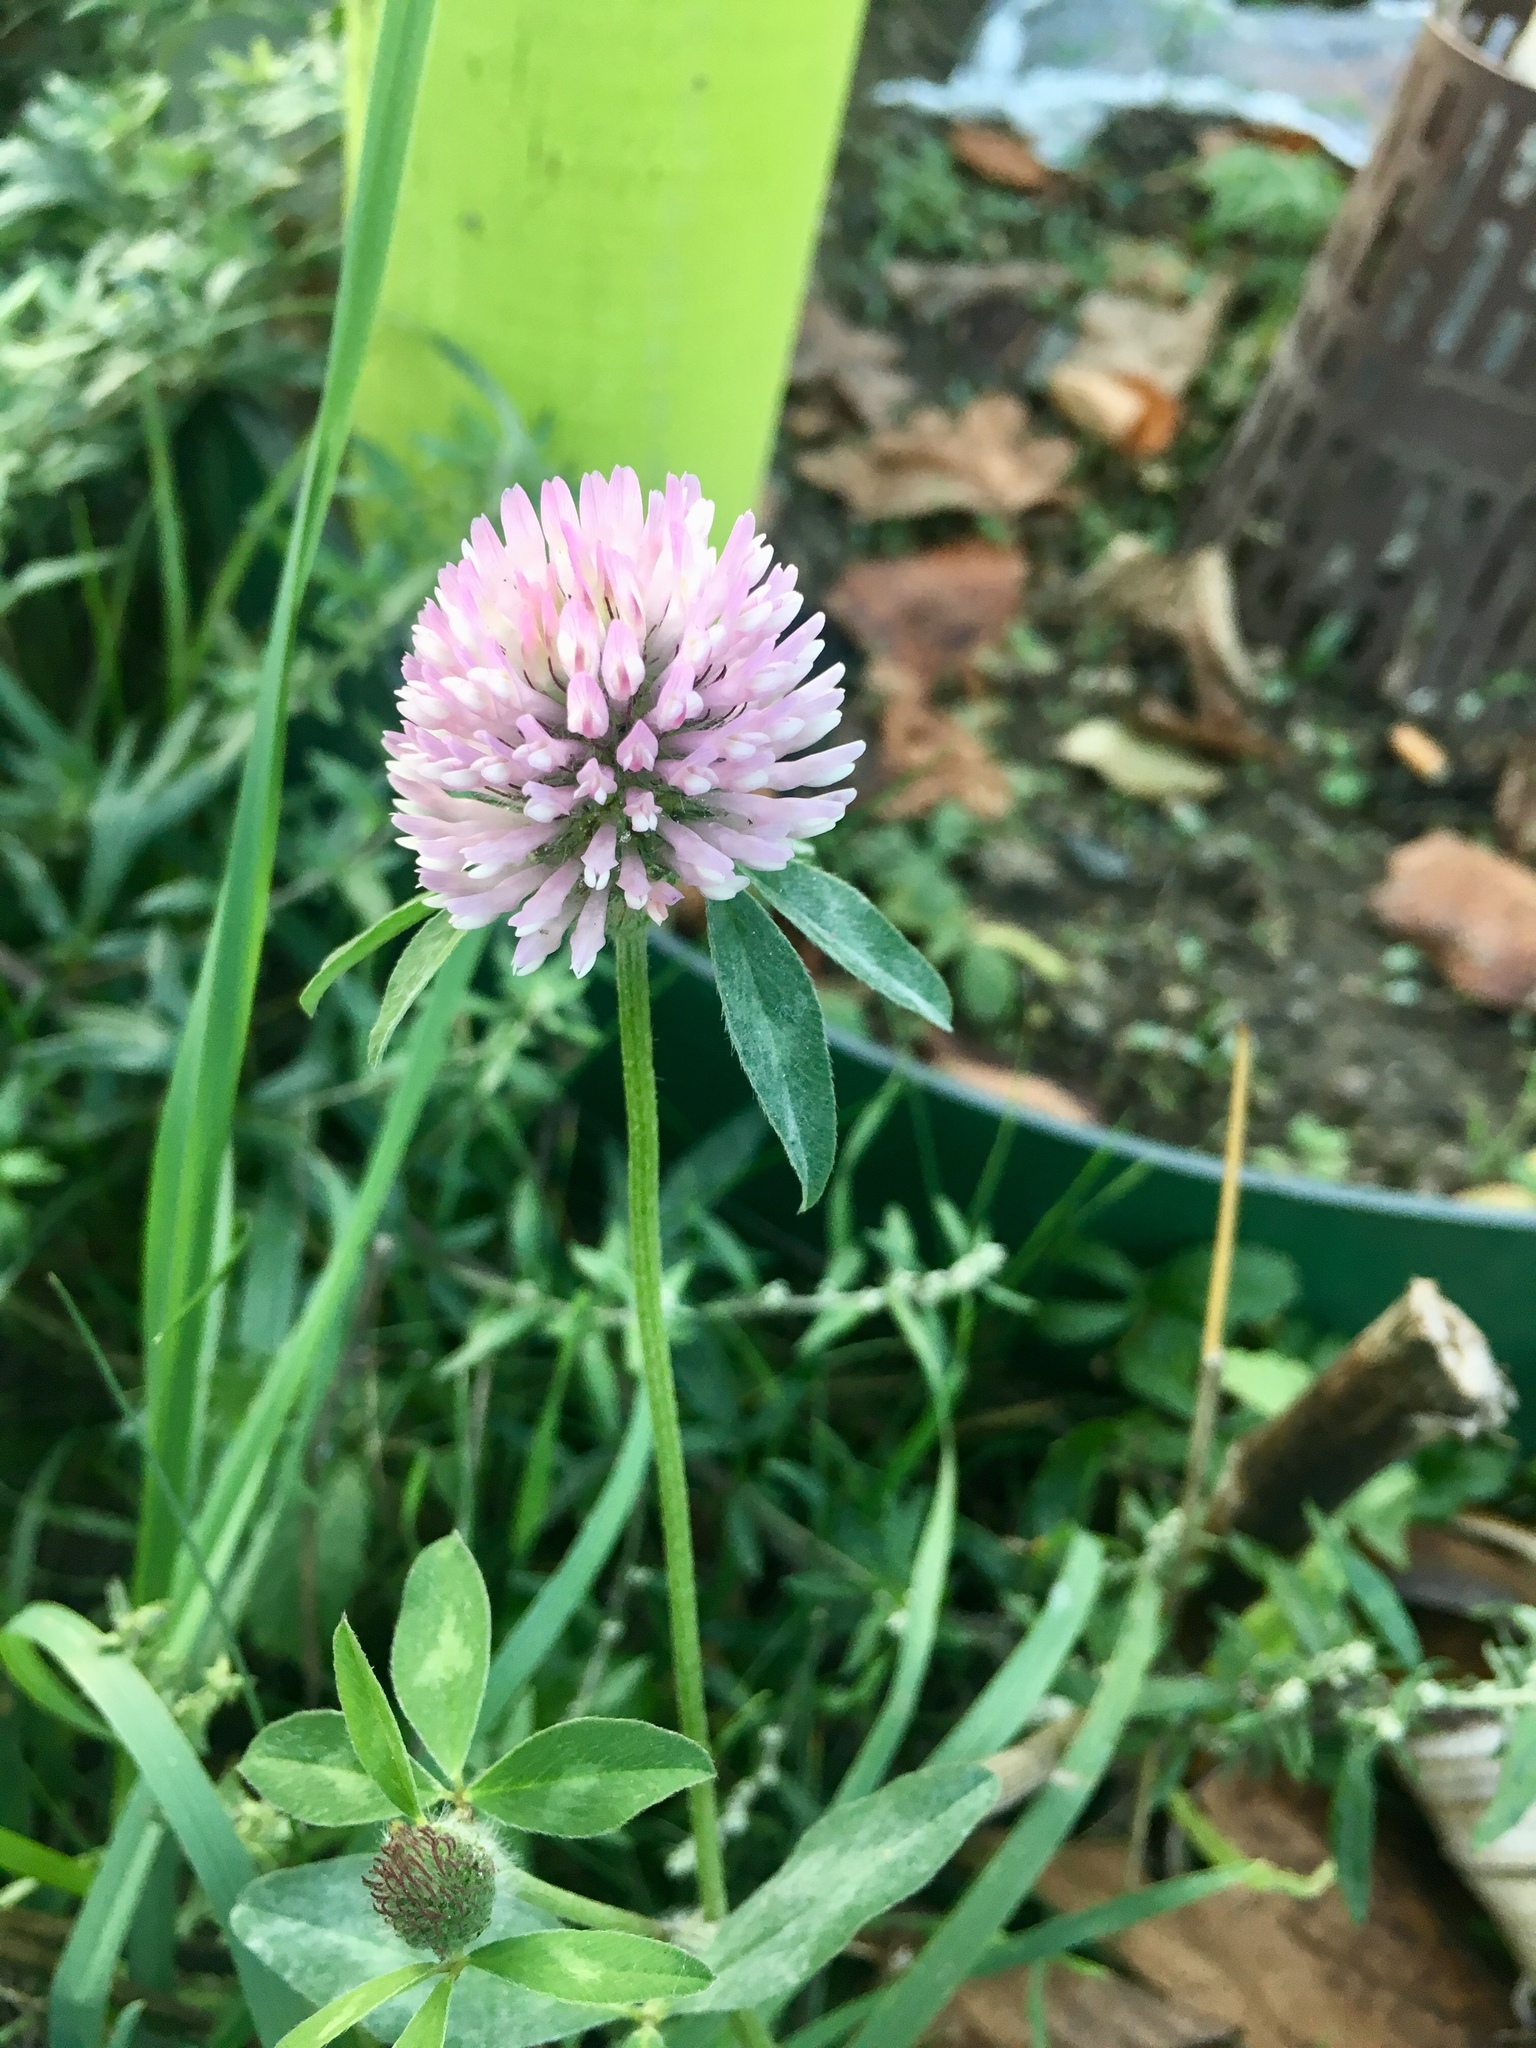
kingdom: Plantae
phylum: Tracheophyta
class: Magnoliopsida
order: Fabales
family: Fabaceae
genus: Trifolium
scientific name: Trifolium pratense
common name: Red clover
